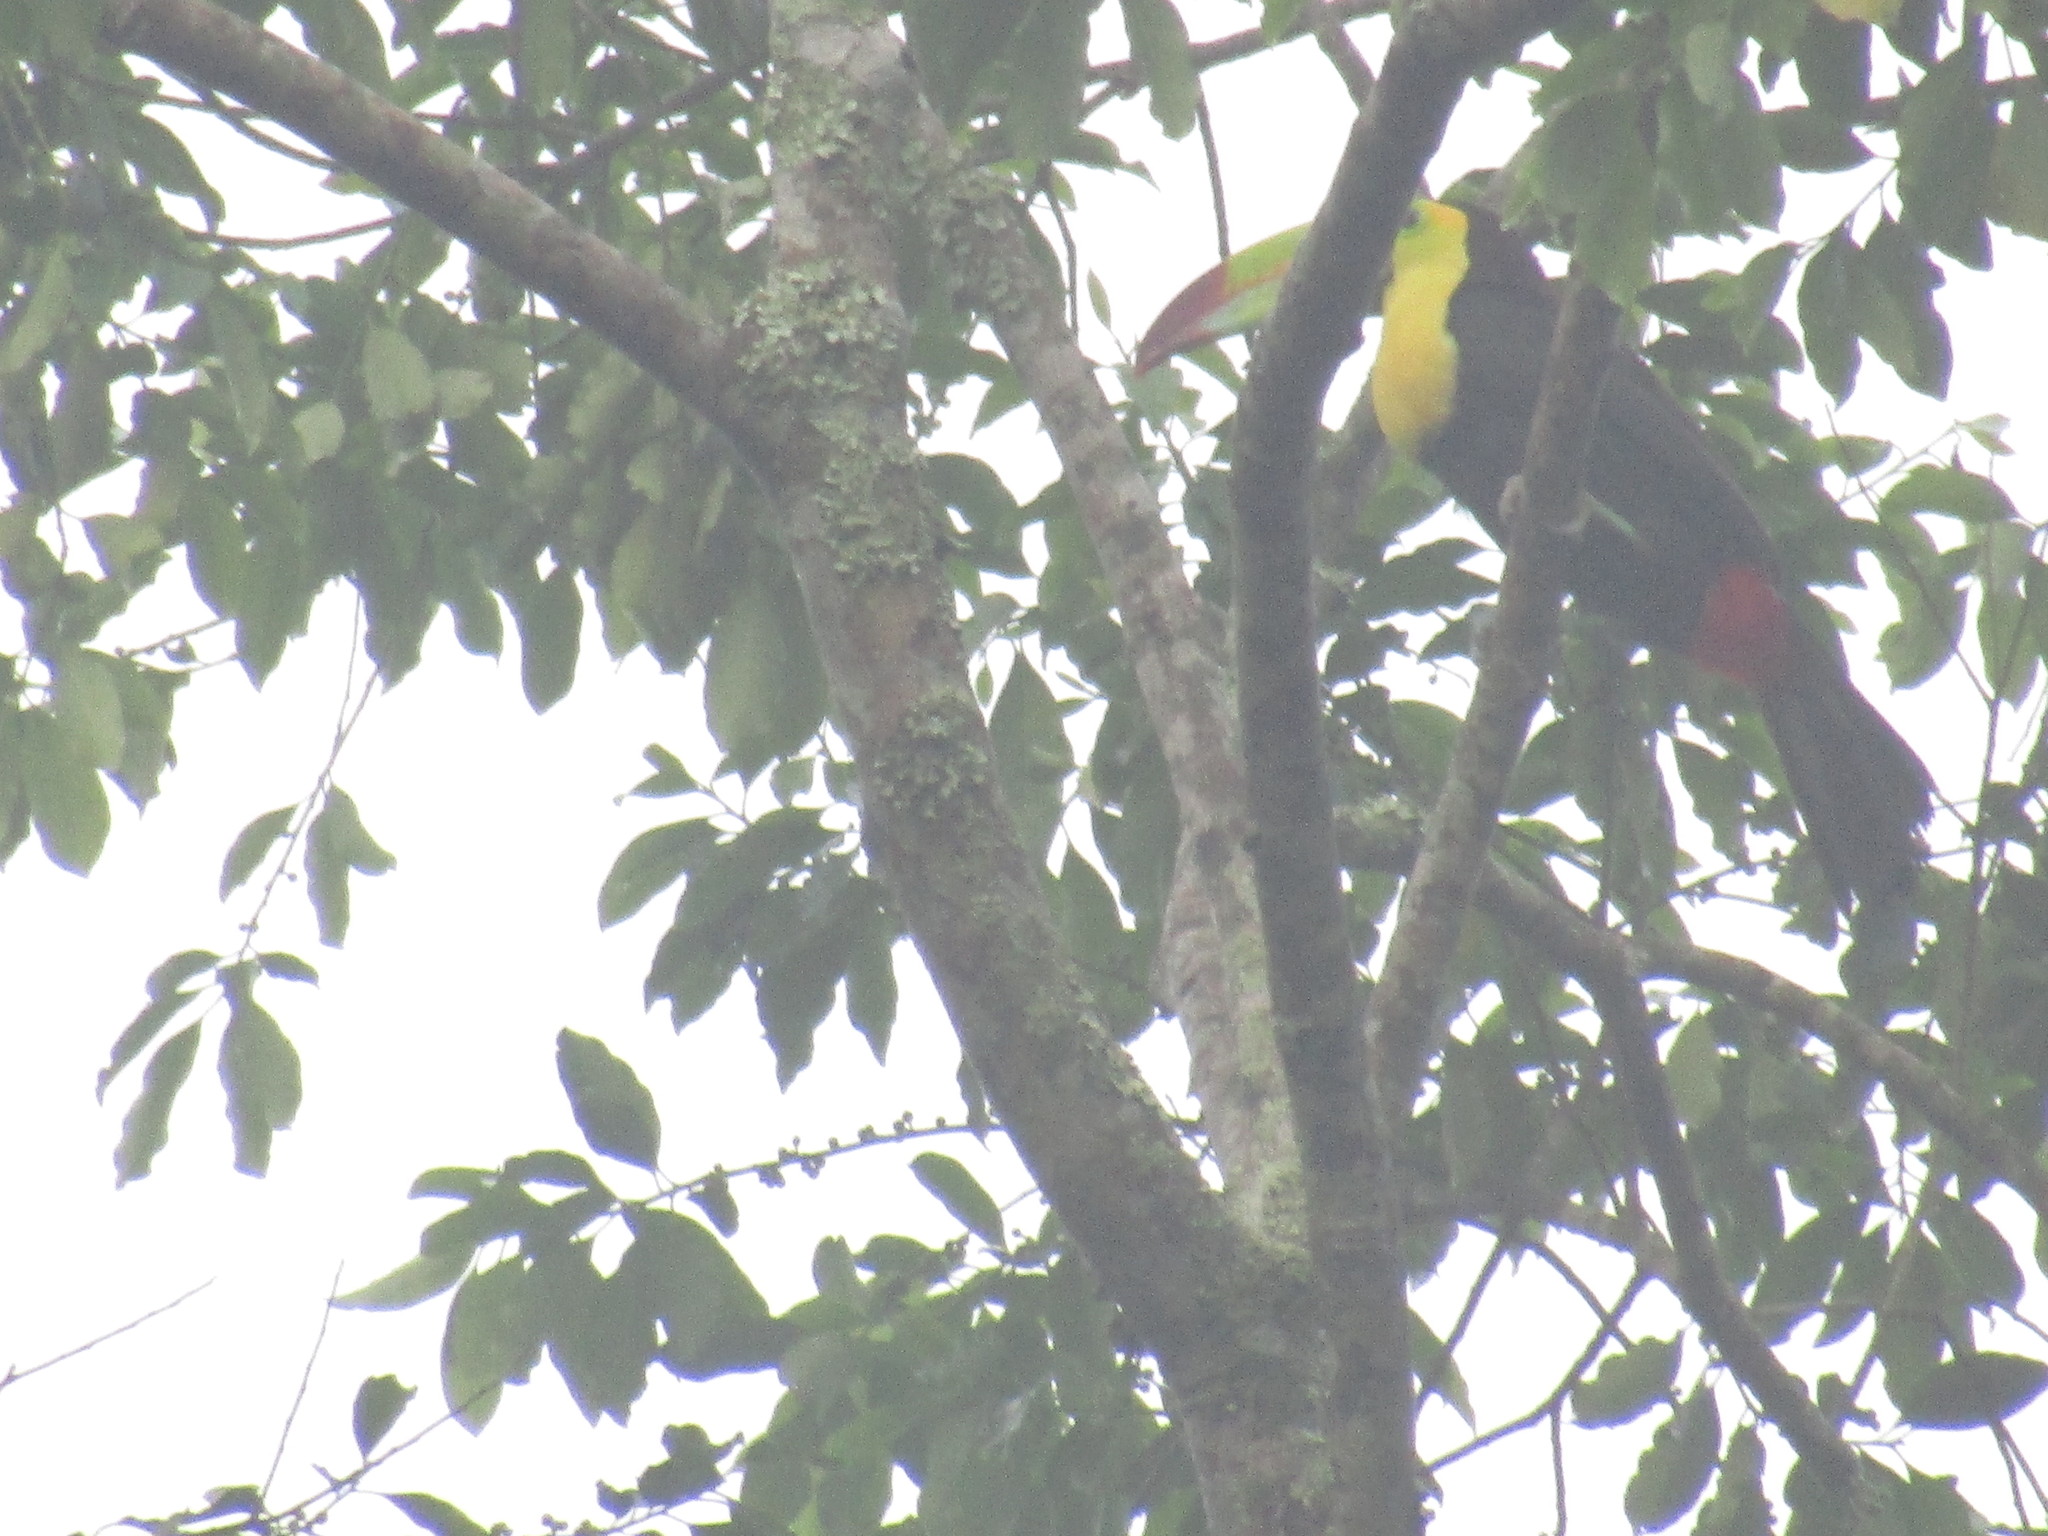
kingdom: Animalia
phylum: Chordata
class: Aves
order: Piciformes
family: Ramphastidae
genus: Ramphastos
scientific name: Ramphastos sulfuratus
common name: Keel-billed toucan
